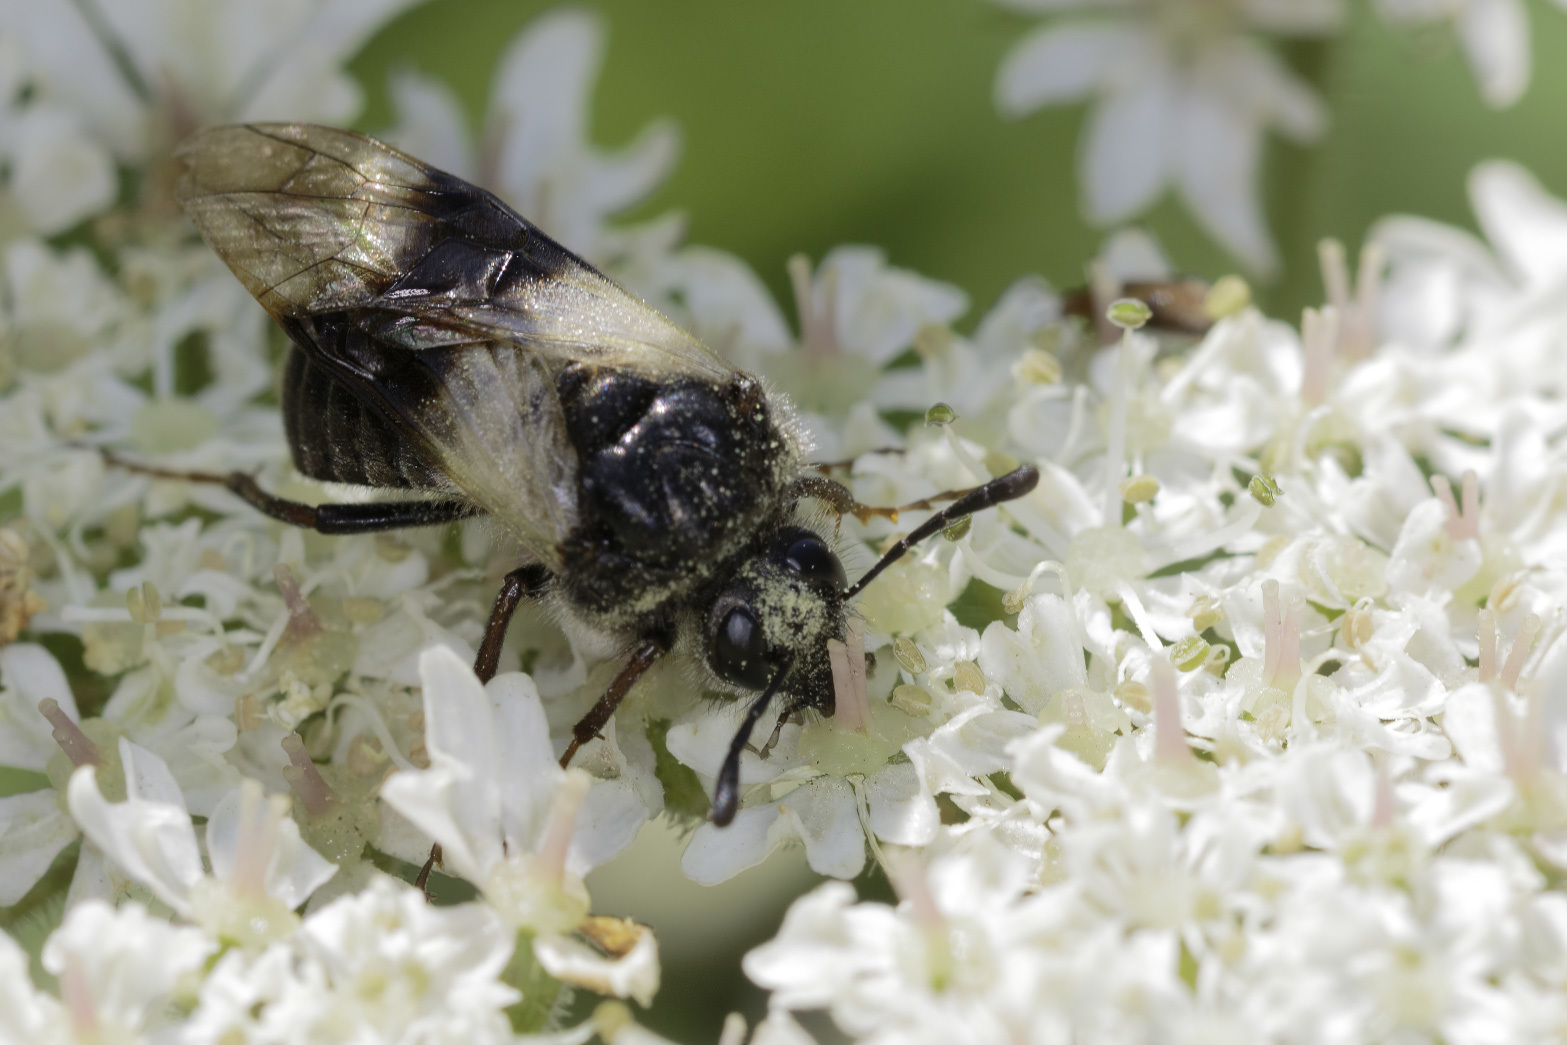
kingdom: Animalia
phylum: Arthropoda
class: Insecta
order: Hymenoptera
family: Cimbicidae
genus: Abia
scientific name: Abia fasciata
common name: Banded honeysuckle sawfly
